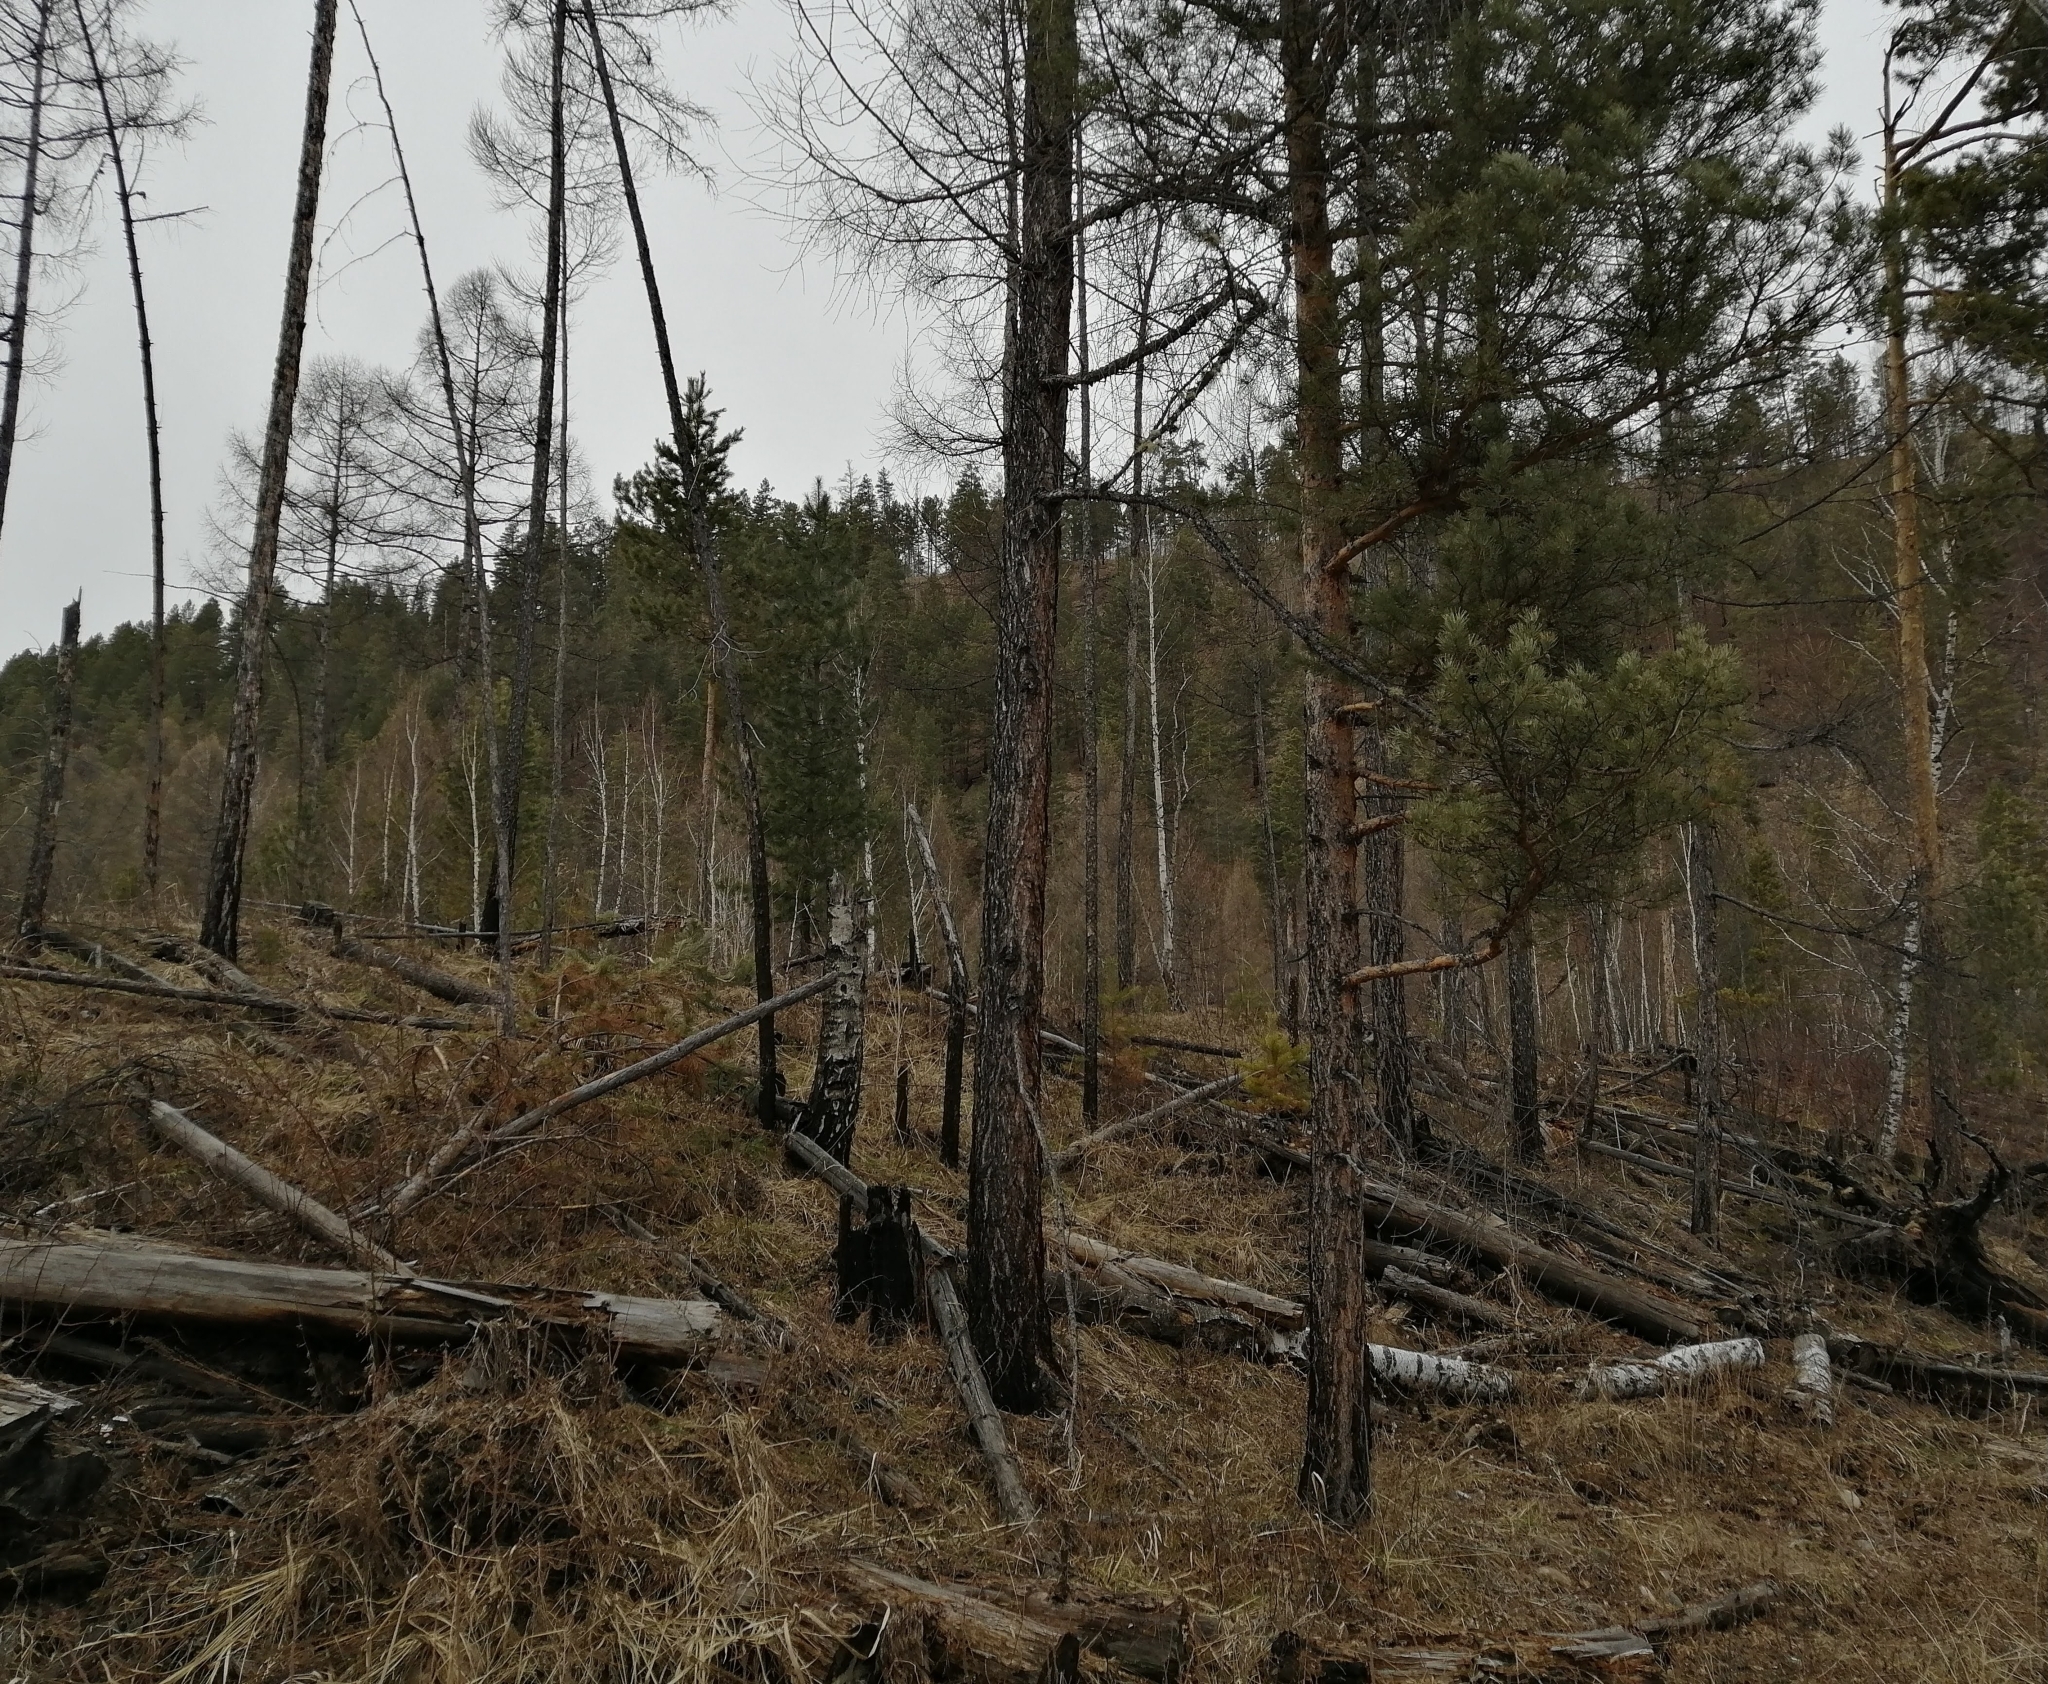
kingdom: Plantae
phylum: Tracheophyta
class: Pinopsida
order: Pinales
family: Pinaceae
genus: Pinus
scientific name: Pinus sylvestris
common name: Scots pine
